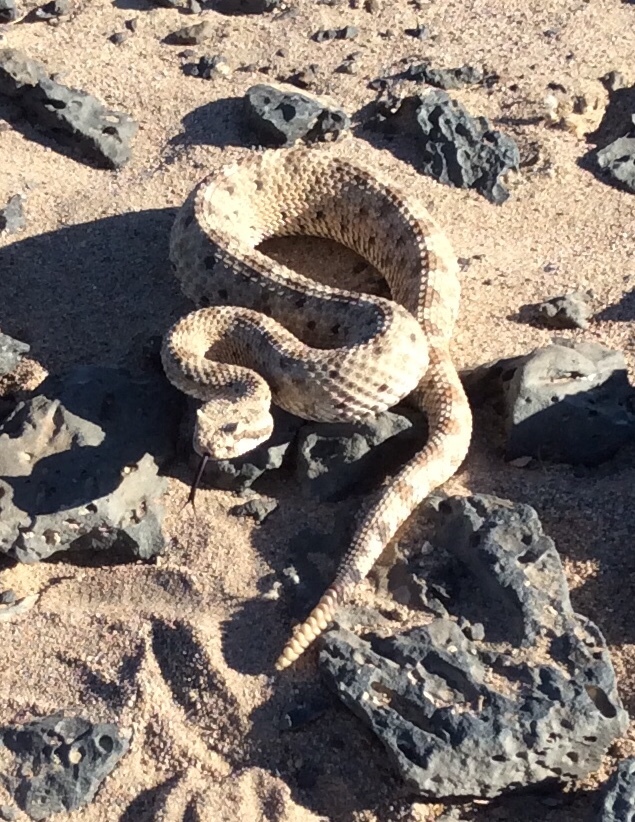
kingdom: Animalia
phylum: Chordata
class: Squamata
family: Viperidae
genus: Crotalus
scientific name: Crotalus cerastes
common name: Sidewinder
